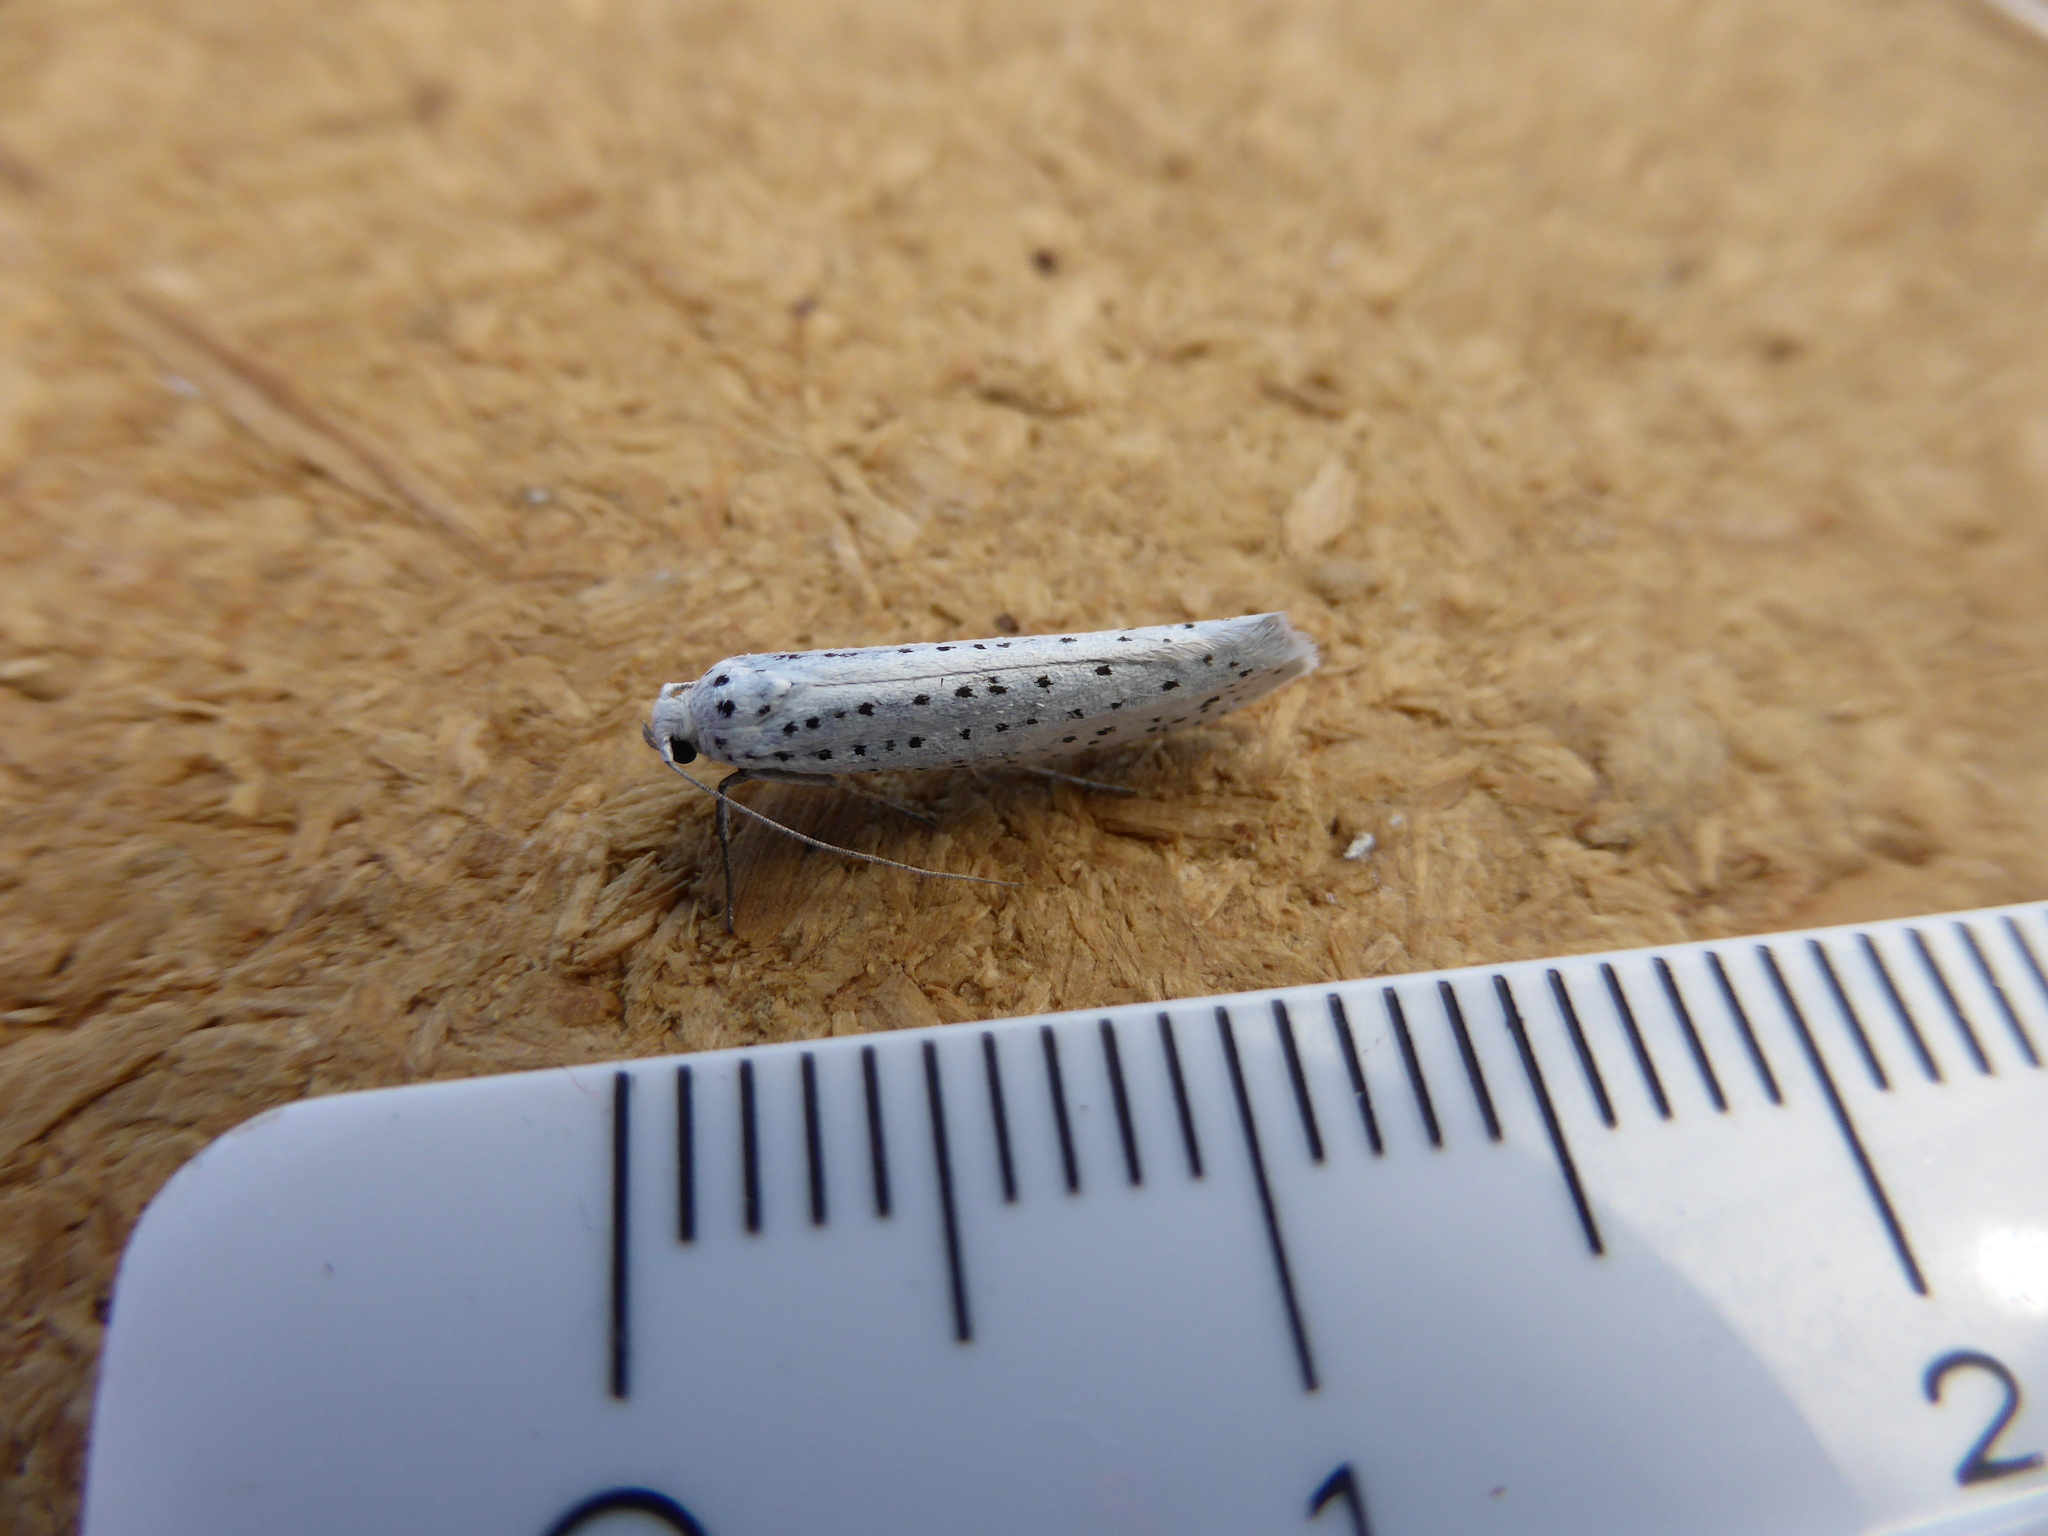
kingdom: Animalia
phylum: Arthropoda
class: Insecta
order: Lepidoptera
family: Yponomeutidae
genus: Yponomeuta
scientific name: Yponomeuta evonymella
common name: Bird-cherry ermine
